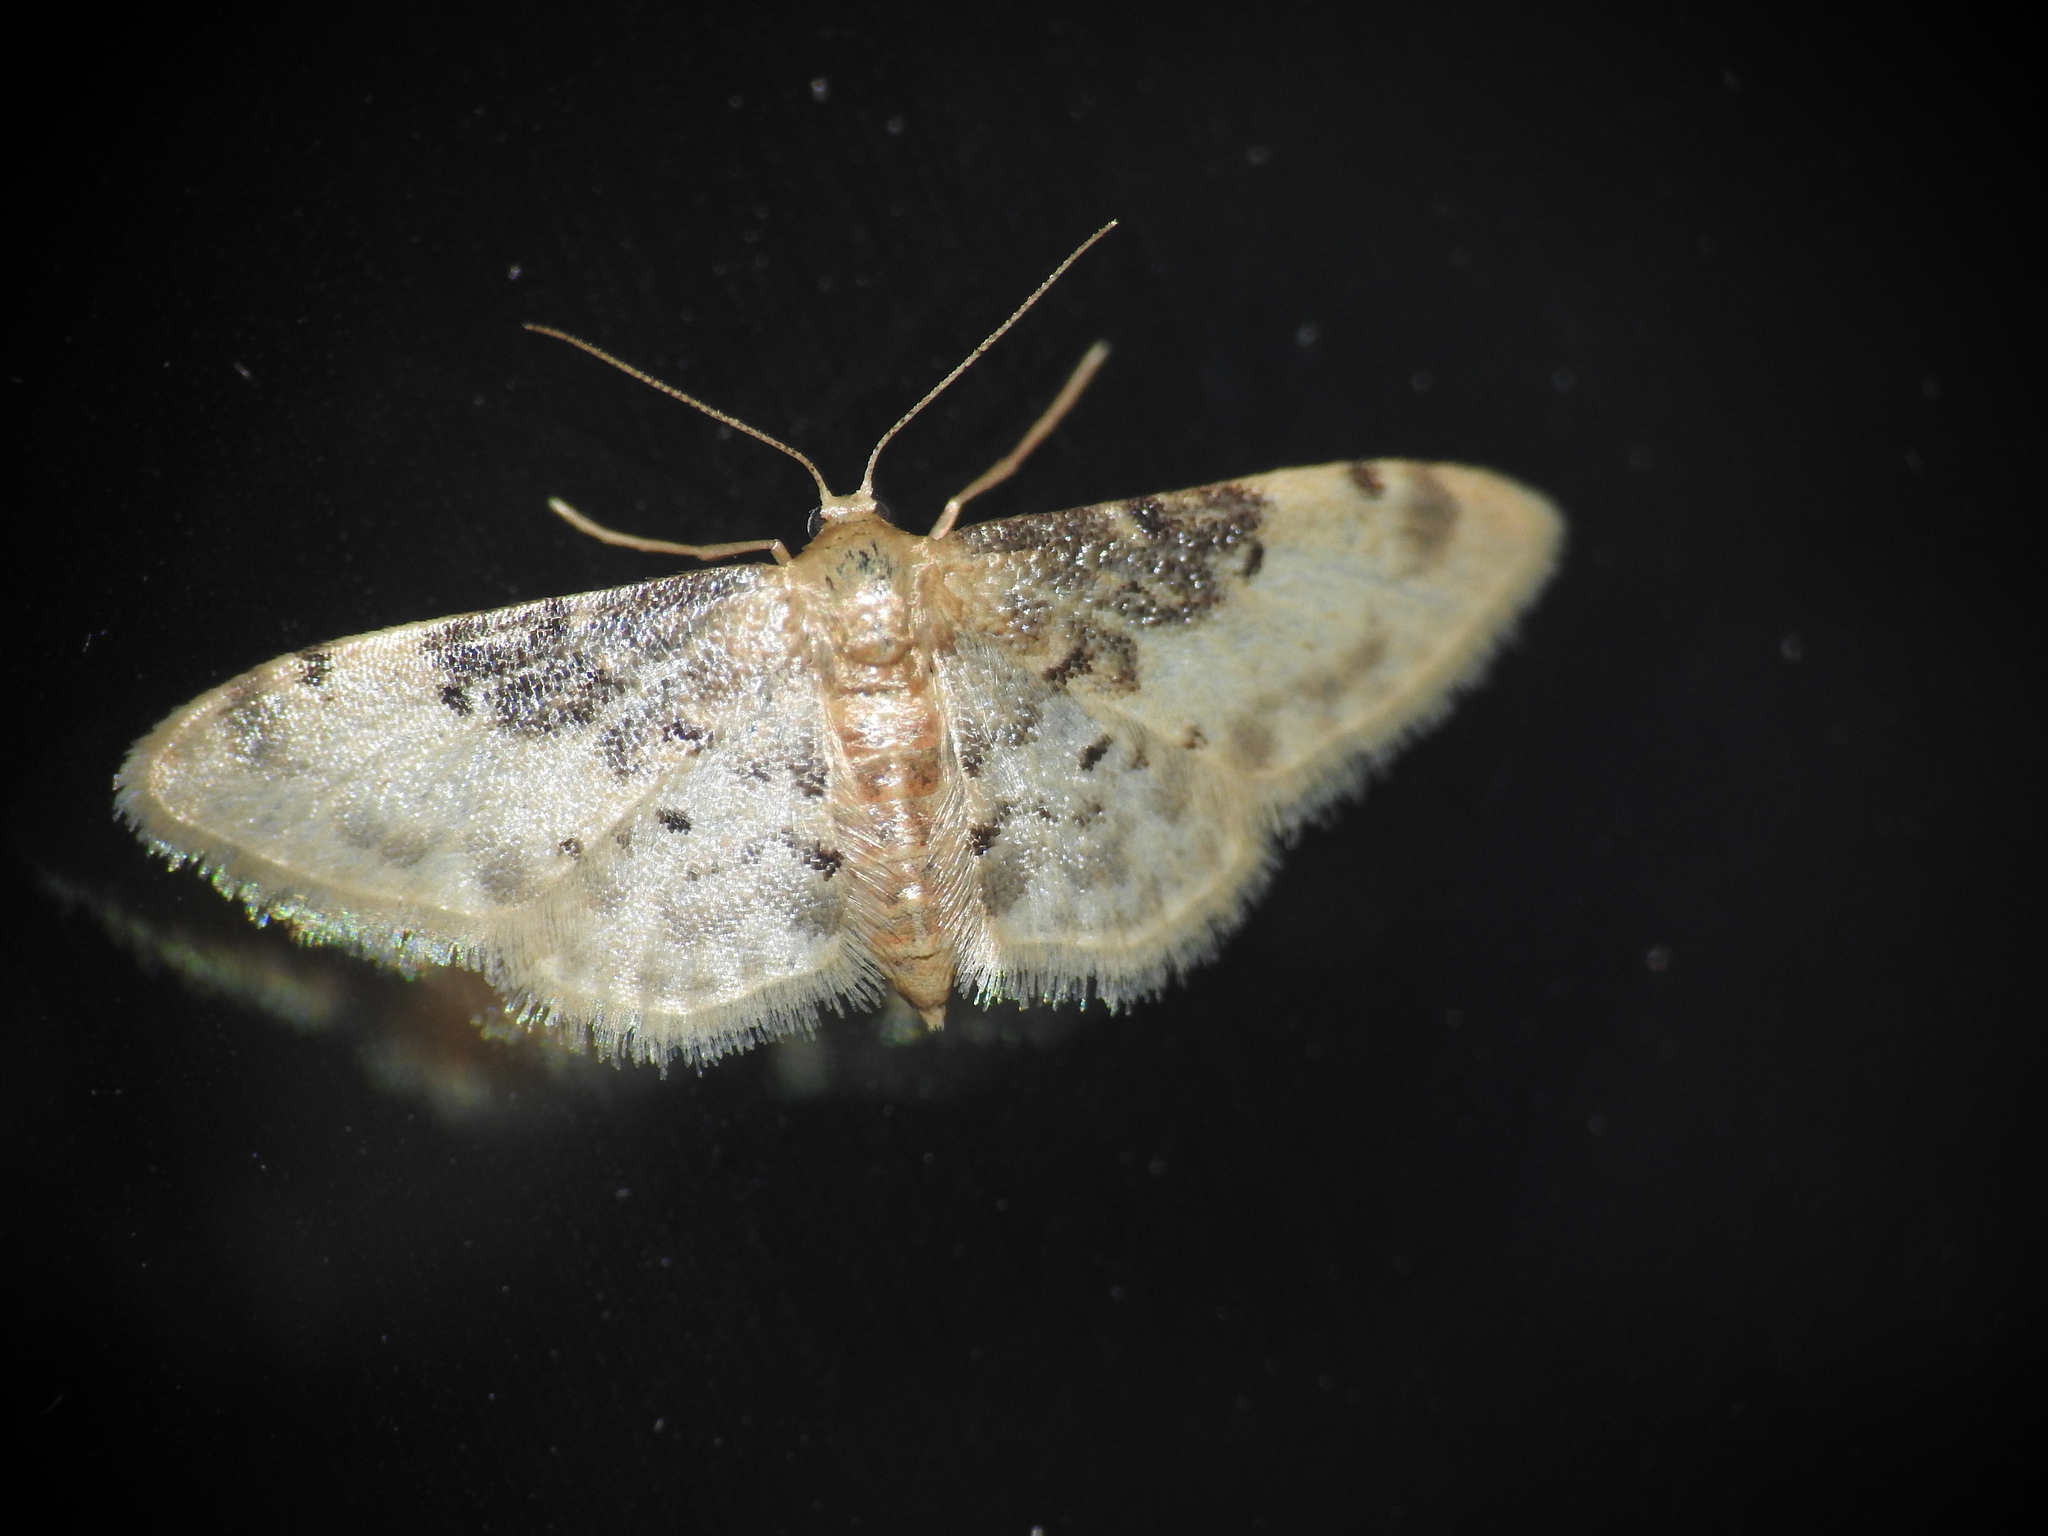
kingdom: Animalia
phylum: Arthropoda
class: Insecta
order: Lepidoptera
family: Geometridae
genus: Idaea
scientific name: Idaea filicata
